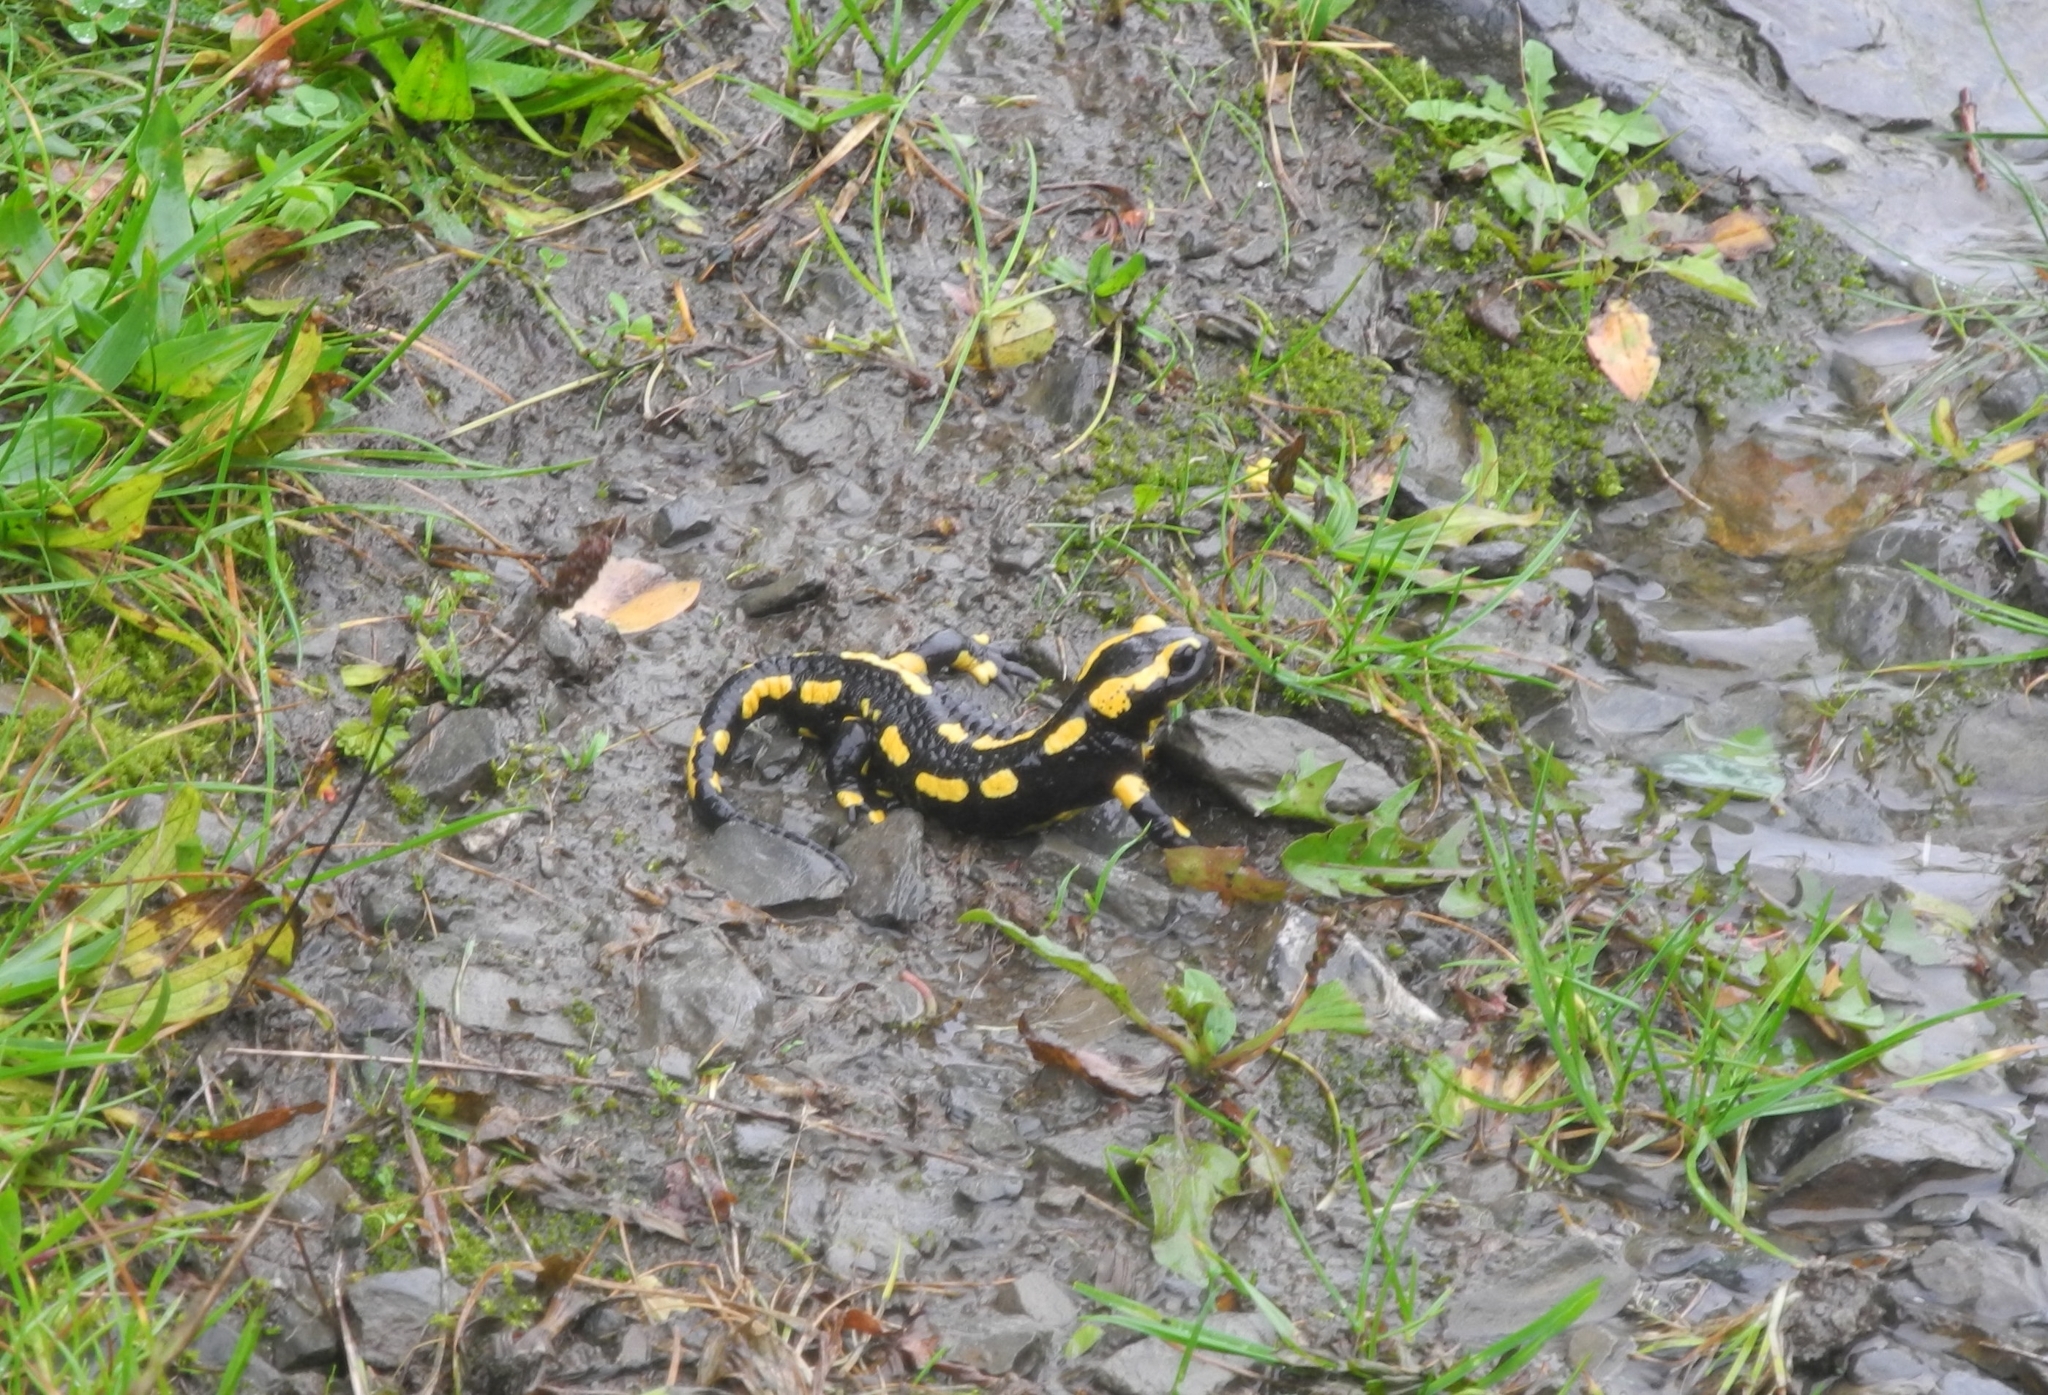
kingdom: Animalia
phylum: Chordata
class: Amphibia
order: Caudata
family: Salamandridae
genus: Salamandra
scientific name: Salamandra salamandra
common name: Fire salamander
